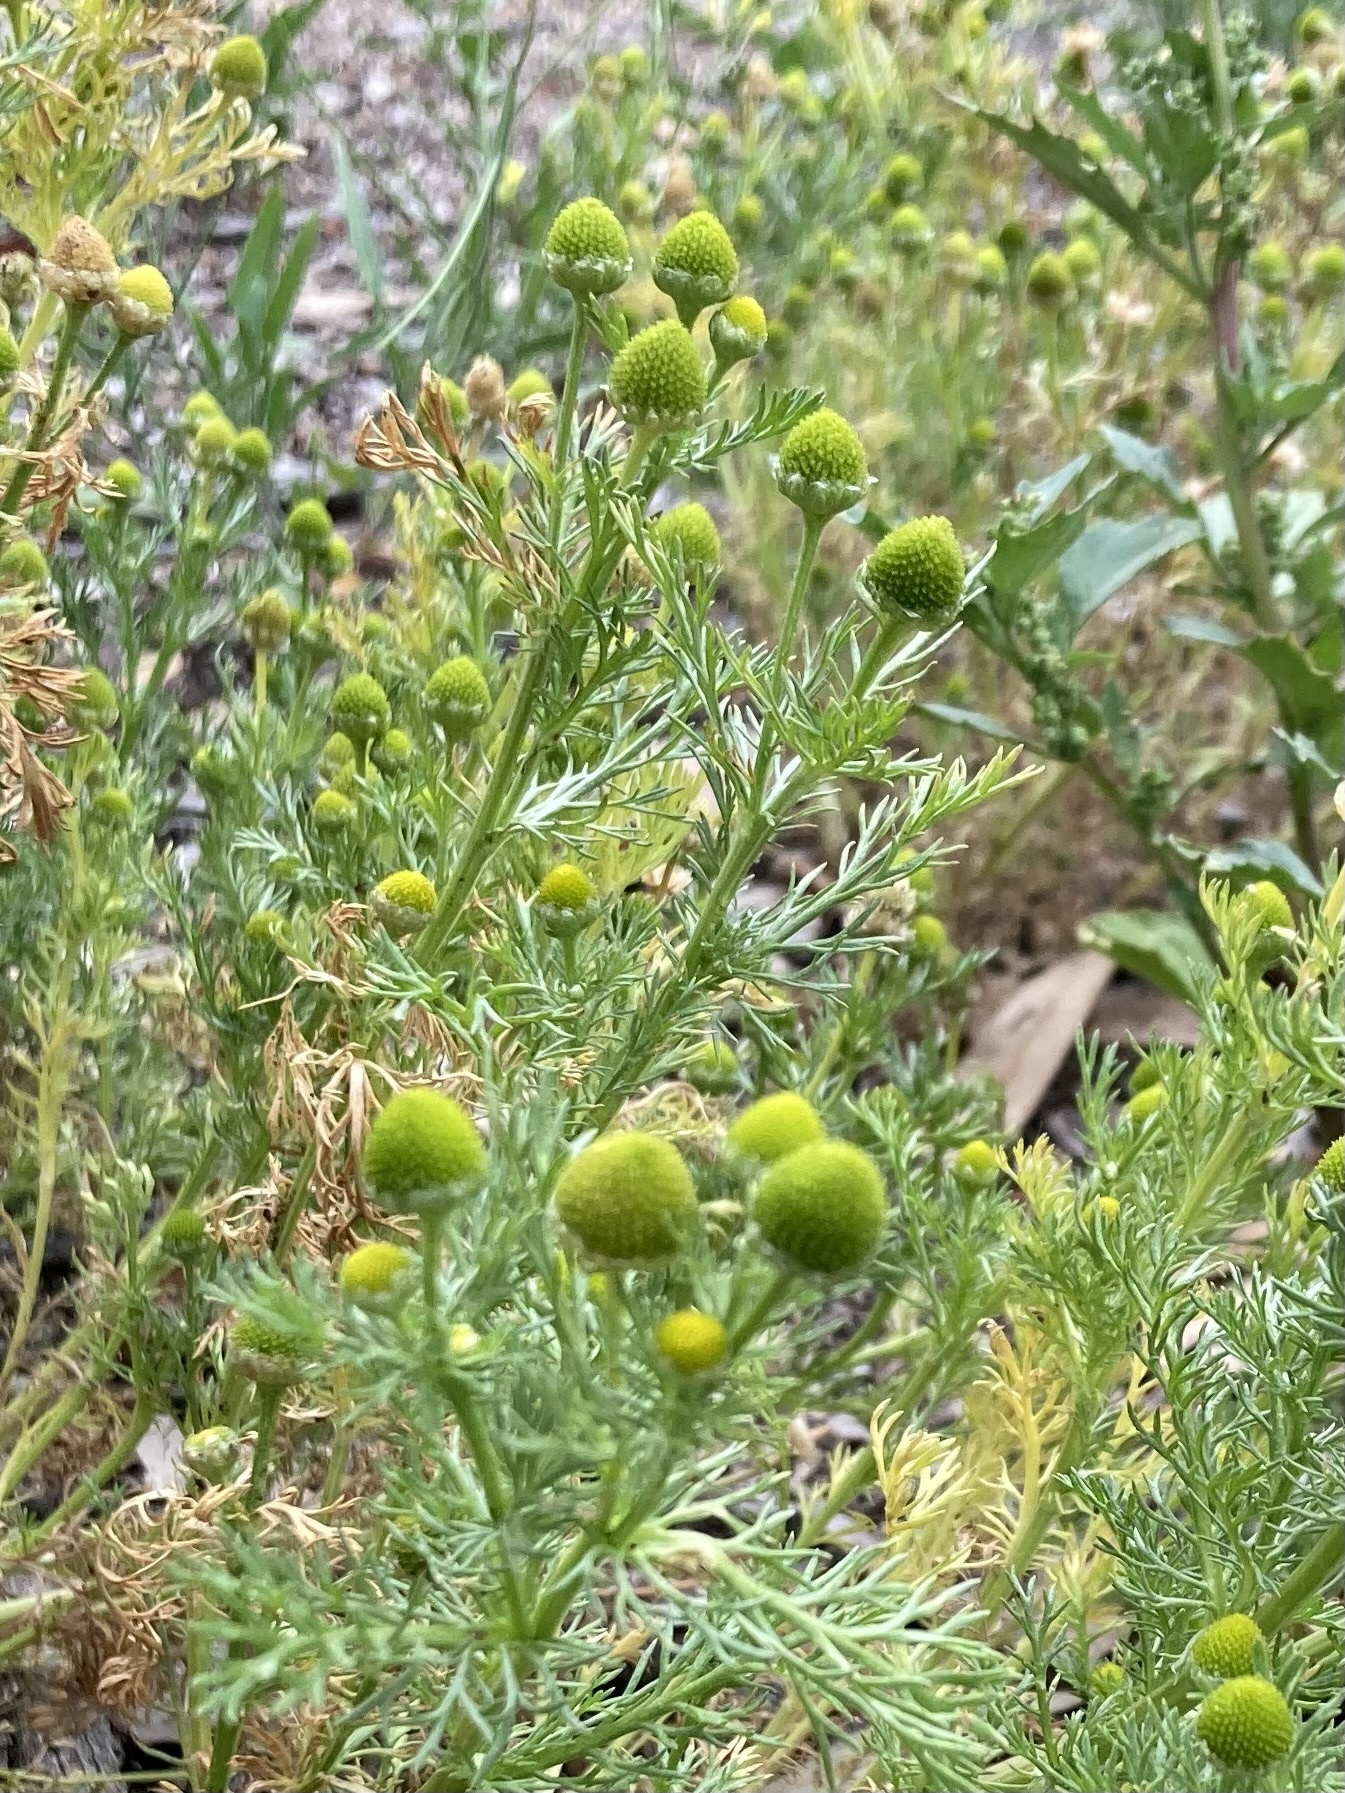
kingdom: Plantae
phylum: Tracheophyta
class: Magnoliopsida
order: Asterales
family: Asteraceae
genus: Matricaria
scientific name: Matricaria discoidea
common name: Disc mayweed
